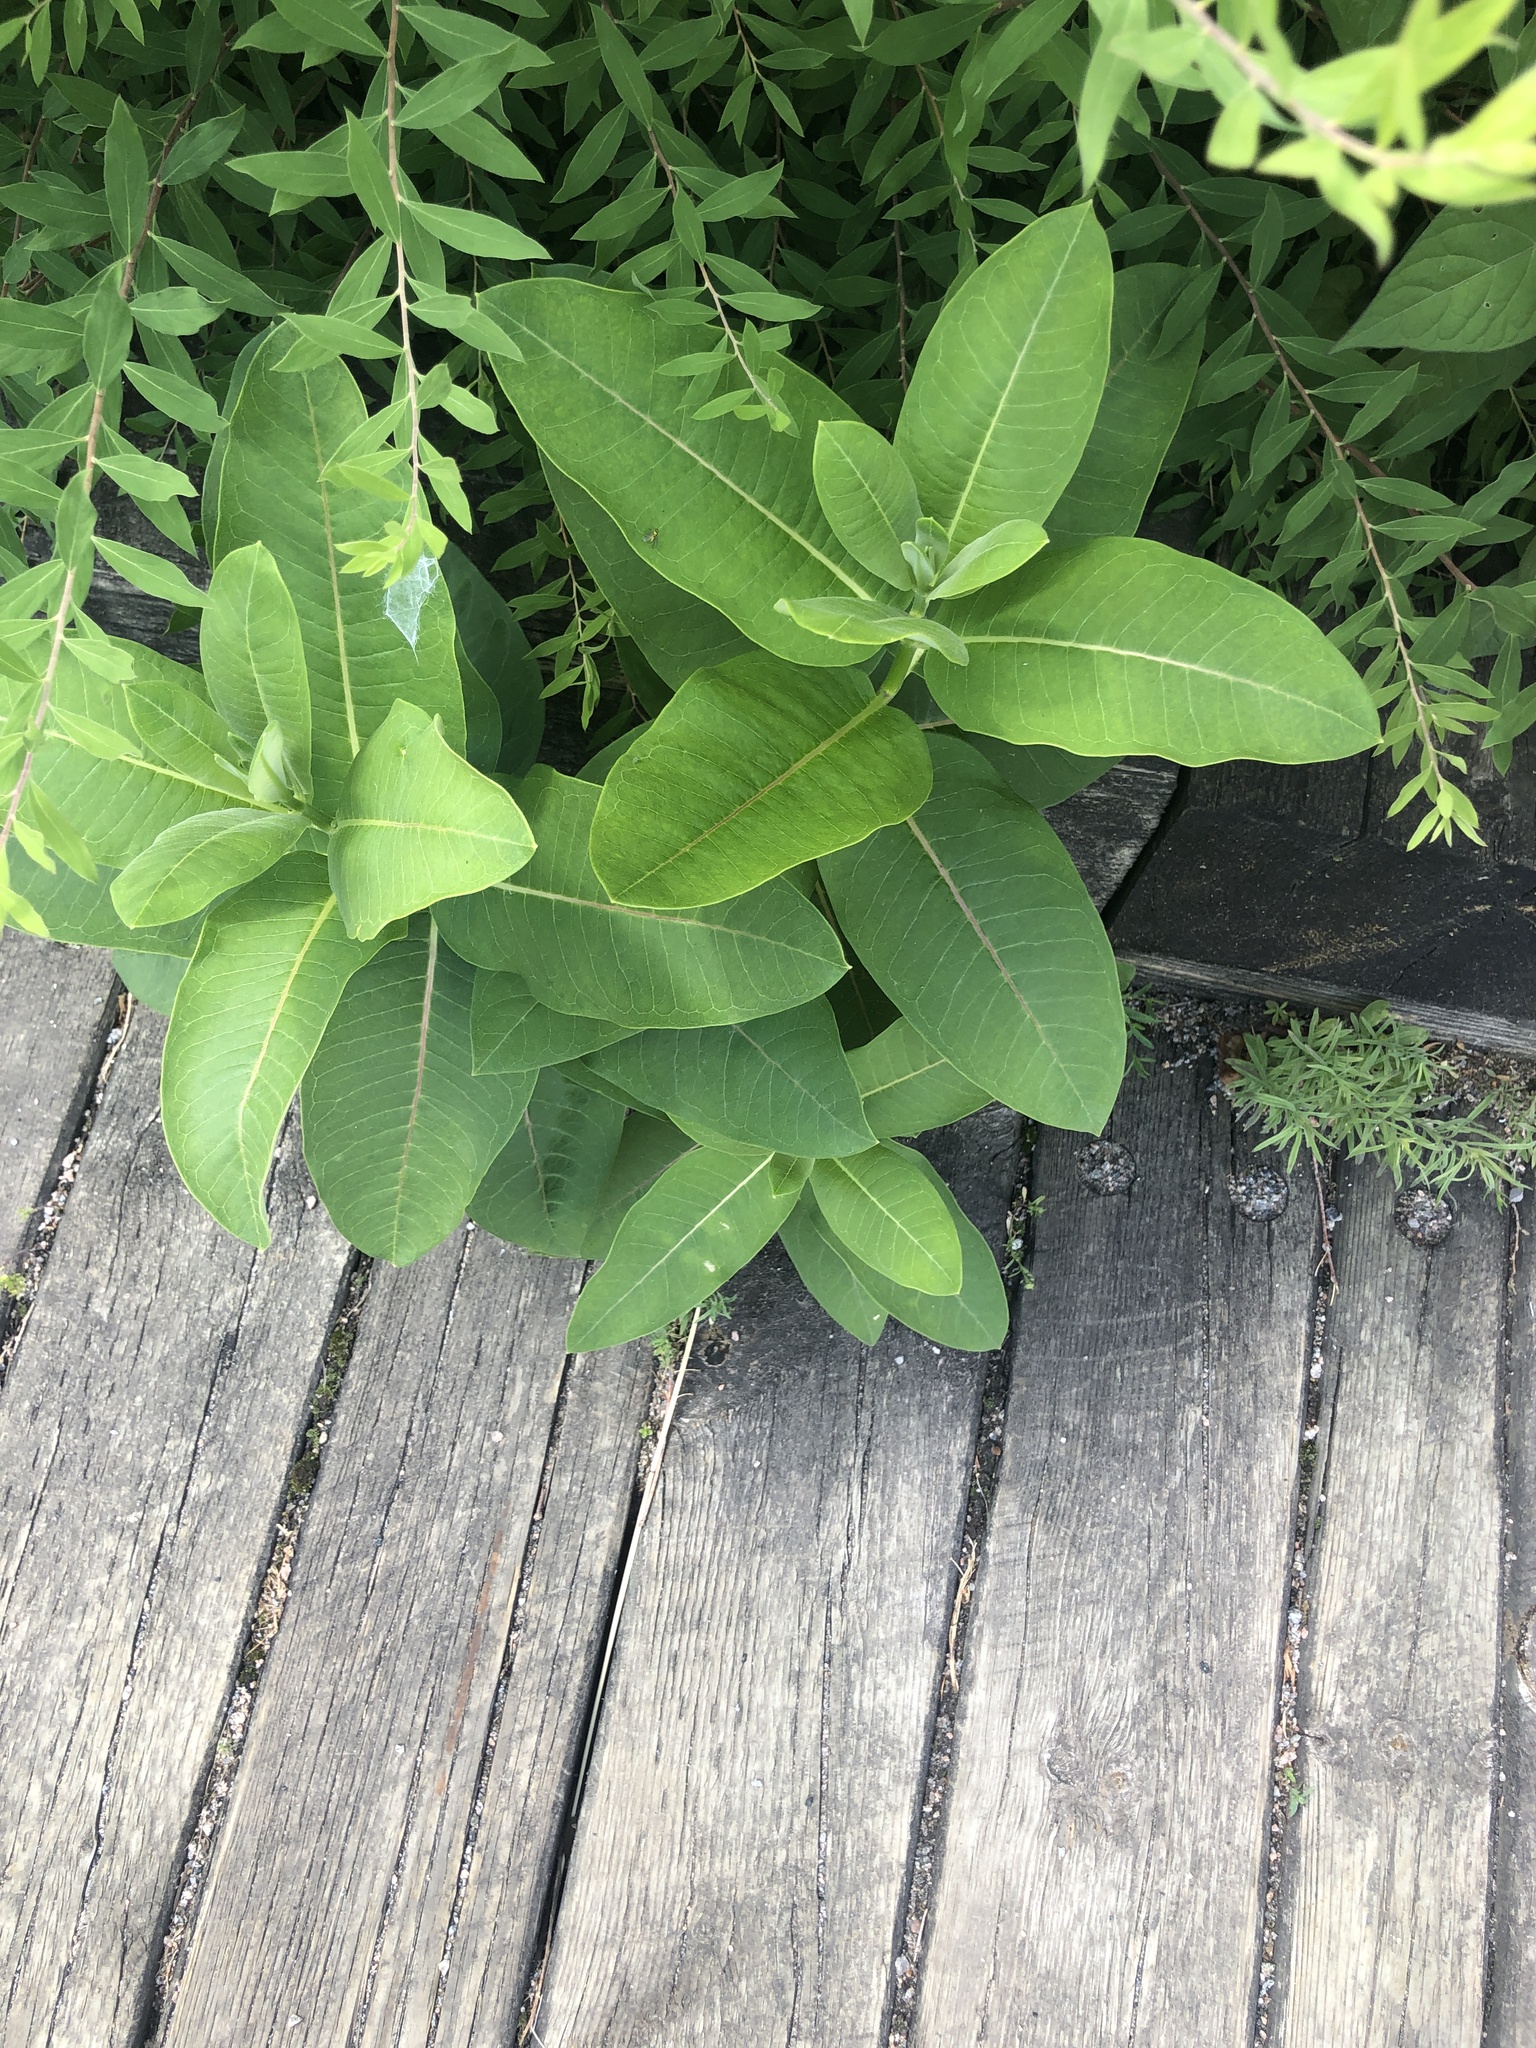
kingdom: Plantae
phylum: Tracheophyta
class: Magnoliopsida
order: Gentianales
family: Apocynaceae
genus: Asclepias
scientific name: Asclepias syriaca
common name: Common milkweed
